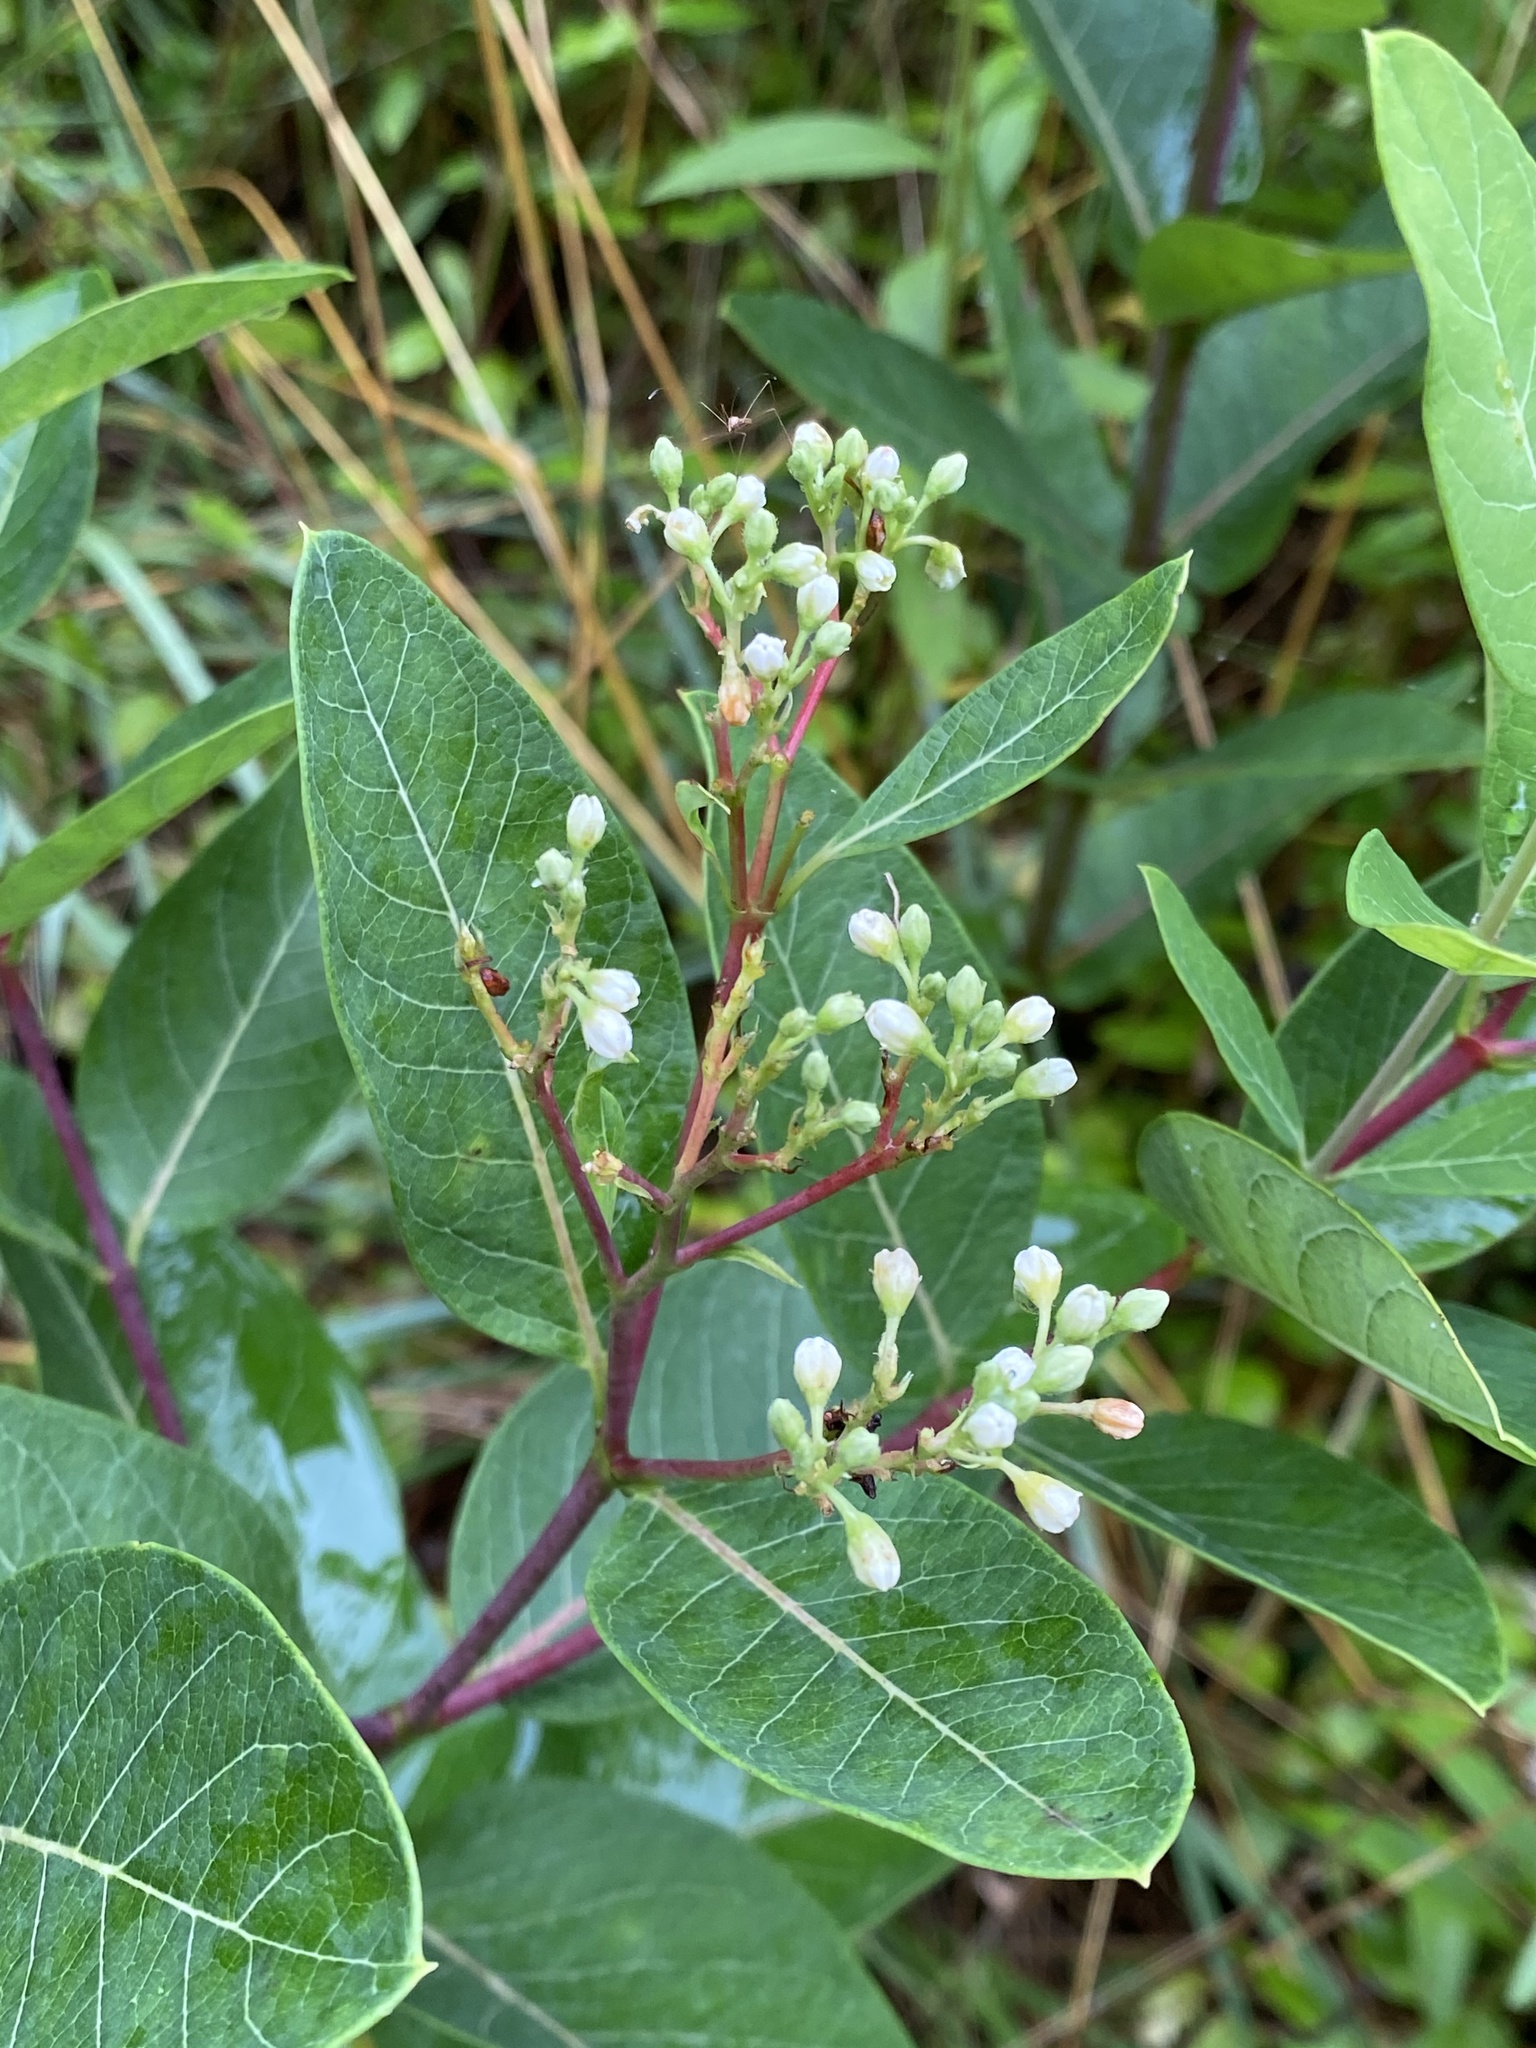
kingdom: Plantae
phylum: Tracheophyta
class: Magnoliopsida
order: Gentianales
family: Apocynaceae
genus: Apocynum
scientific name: Apocynum cannabinum
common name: Hemp dogbane
